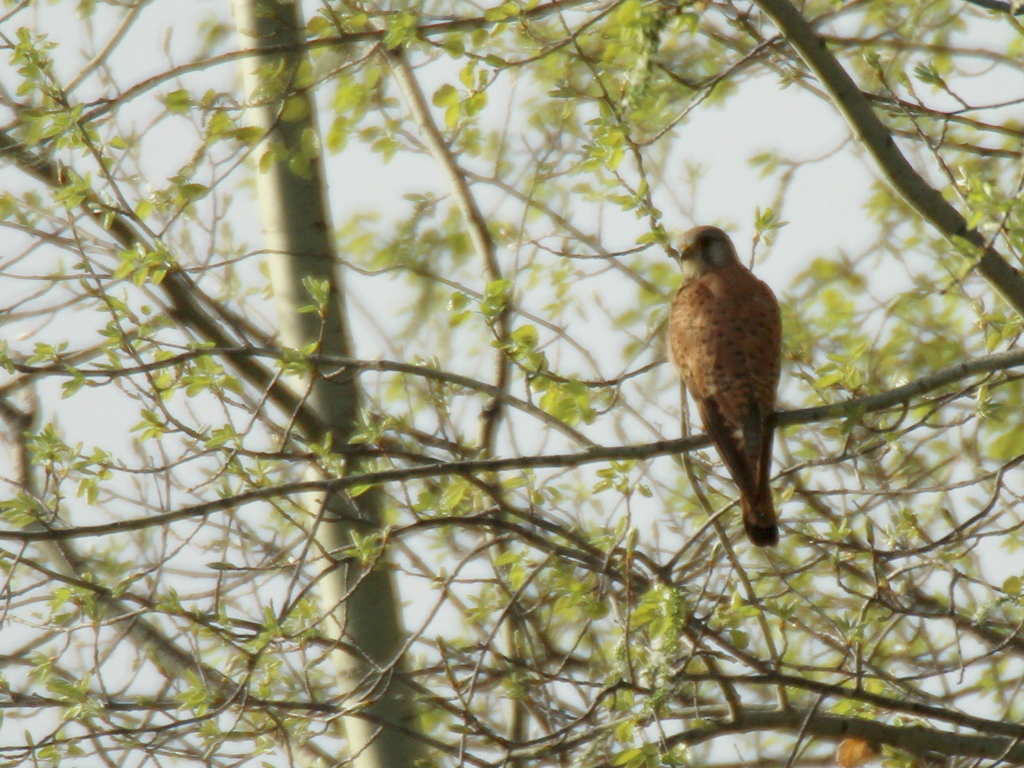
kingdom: Animalia
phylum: Chordata
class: Aves
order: Falconiformes
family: Falconidae
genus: Falco
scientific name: Falco tinnunculus
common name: Common kestrel
